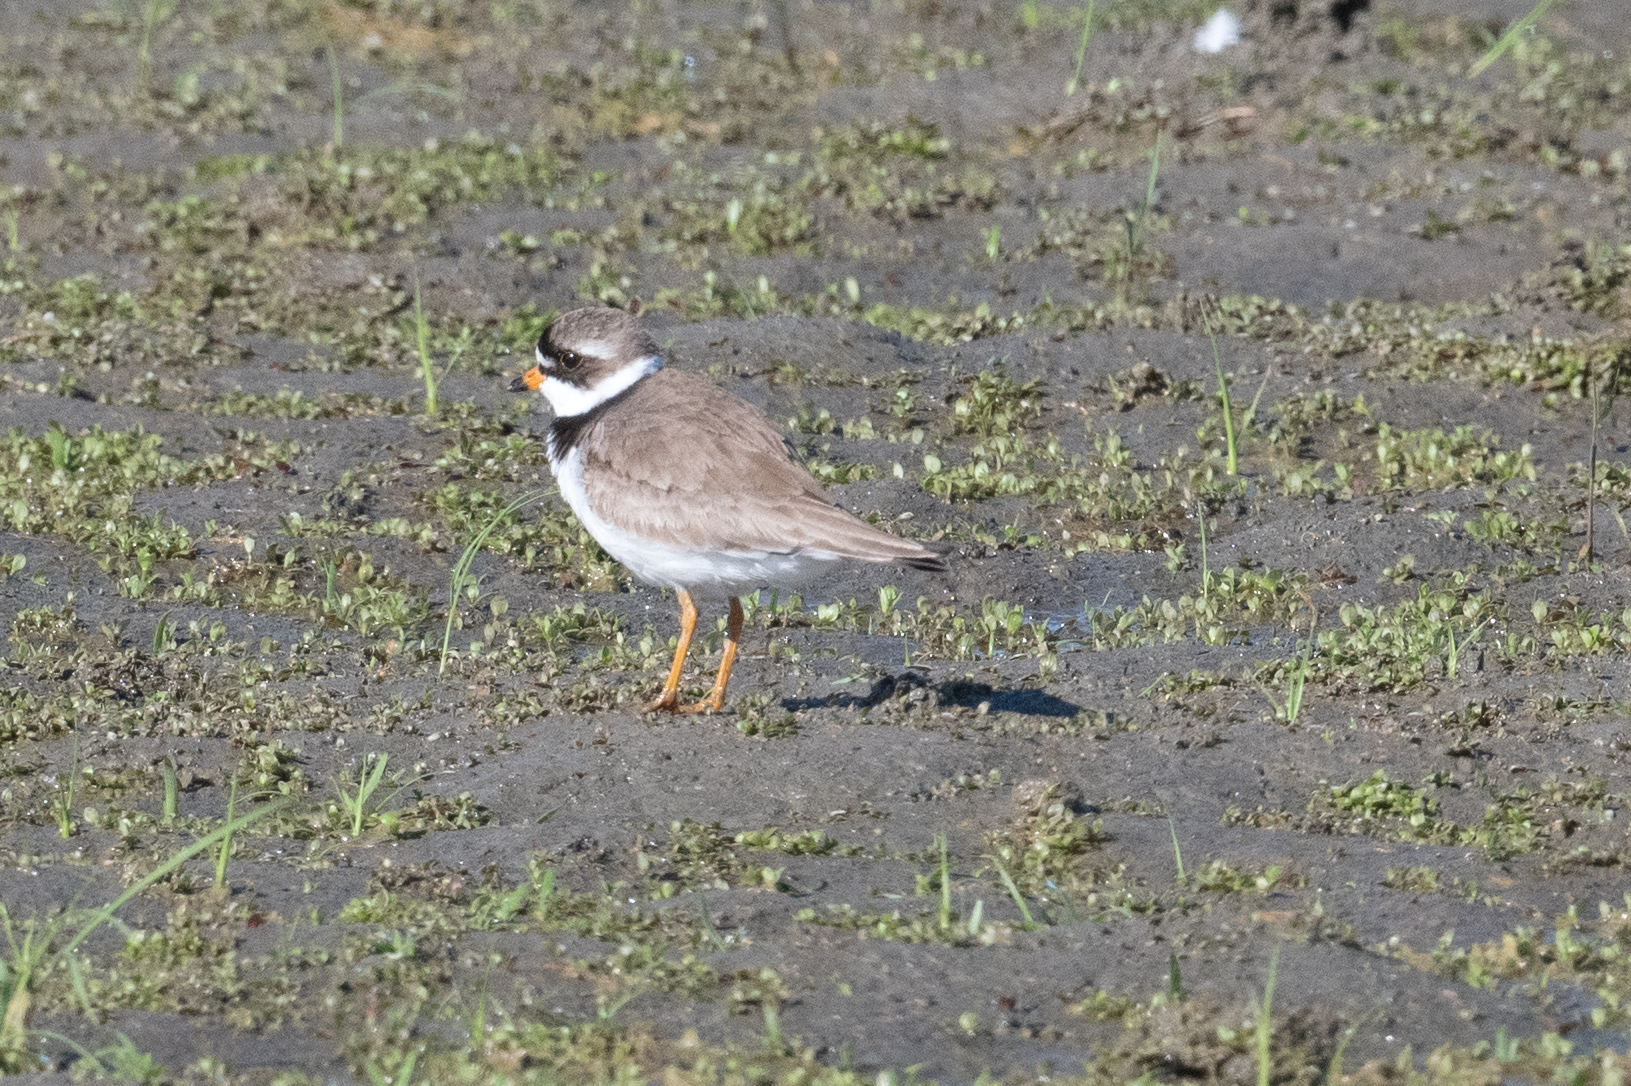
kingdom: Animalia
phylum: Chordata
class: Aves
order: Charadriiformes
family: Charadriidae
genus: Charadrius
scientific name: Charadrius semipalmatus
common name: Semipalmated plover
